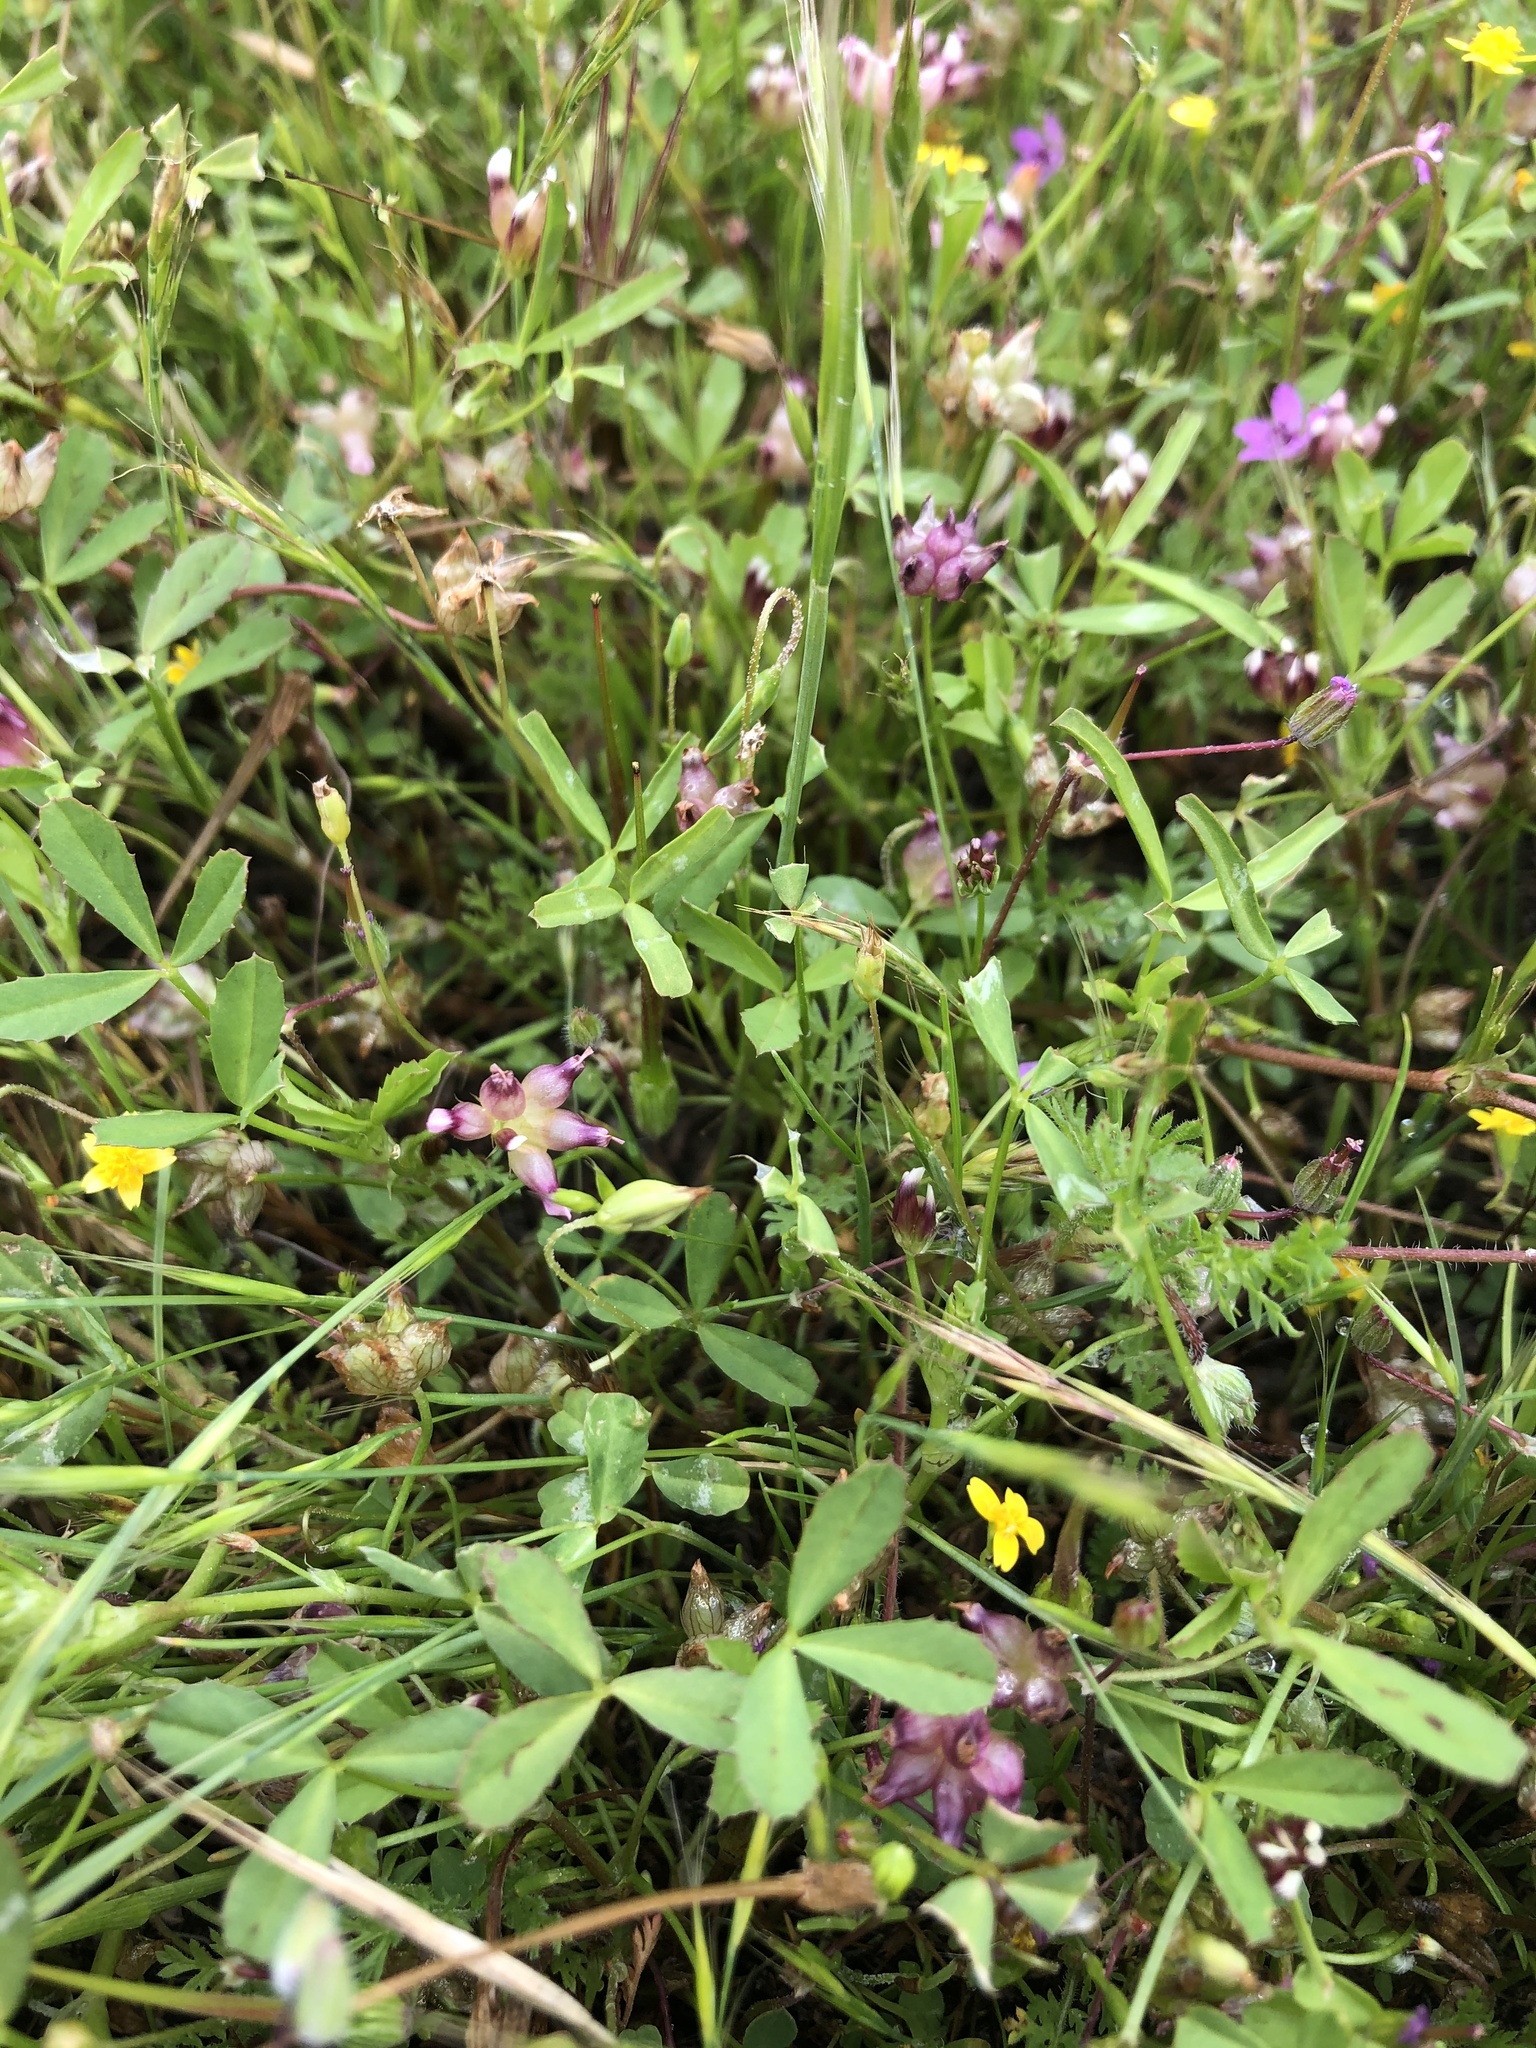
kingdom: Plantae
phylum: Tracheophyta
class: Magnoliopsida
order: Fabales
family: Fabaceae
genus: Trifolium
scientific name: Trifolium depauperatum
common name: Poverty clover
